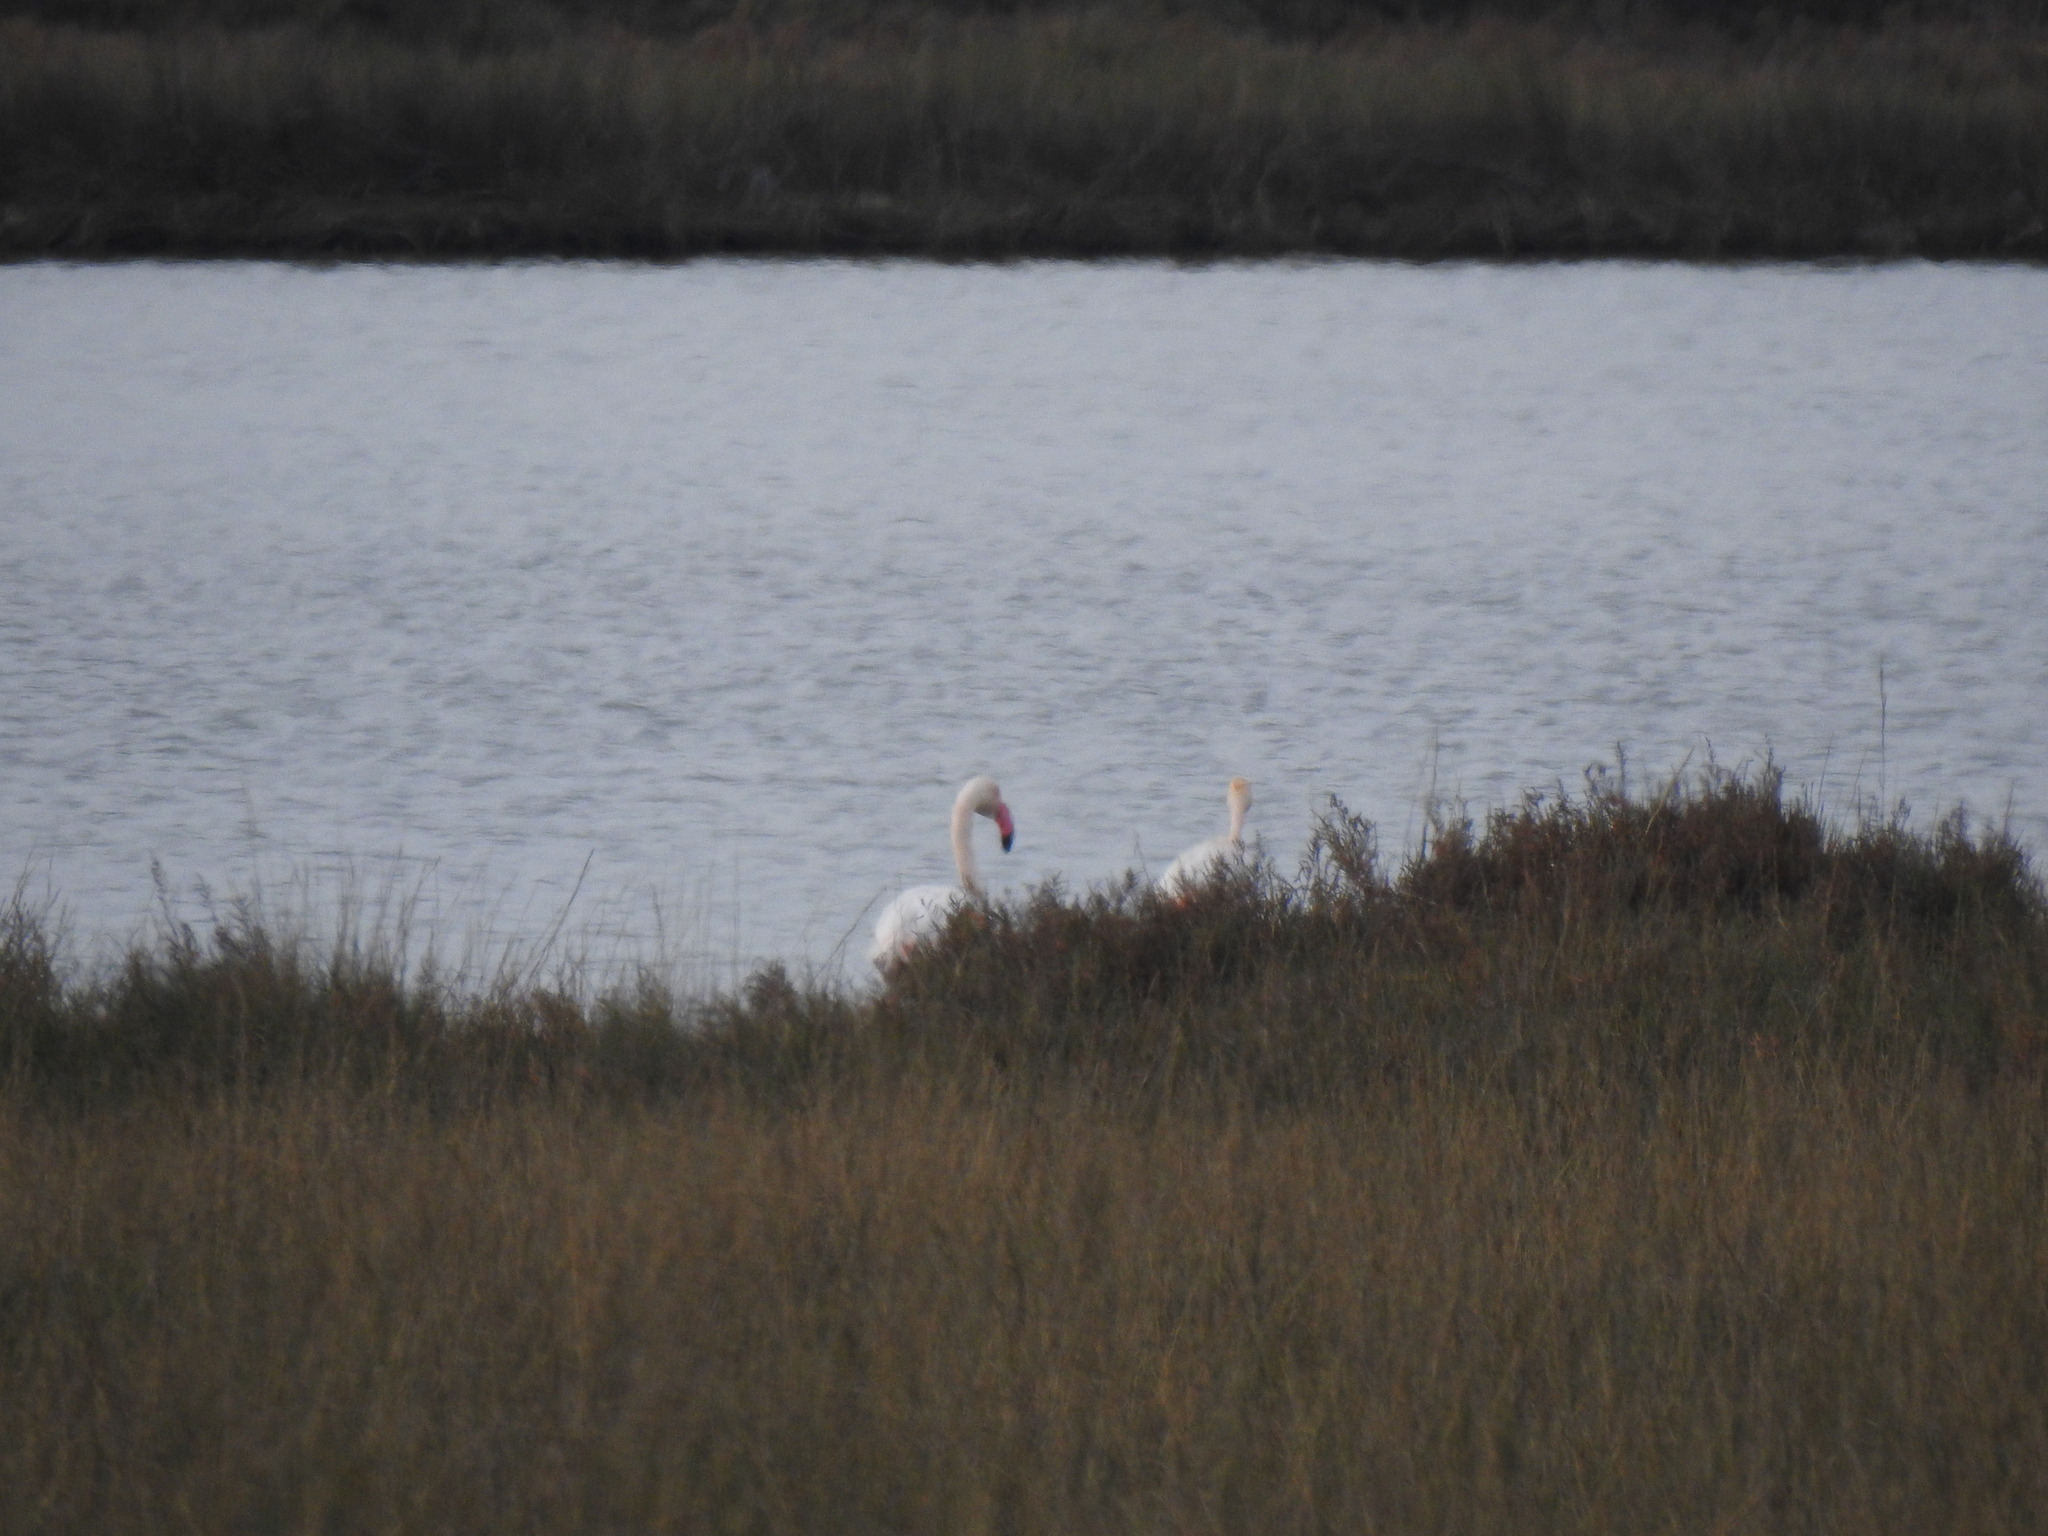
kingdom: Animalia
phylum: Chordata
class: Aves
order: Phoenicopteriformes
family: Phoenicopteridae
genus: Phoenicopterus
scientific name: Phoenicopterus roseus
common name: Greater flamingo
